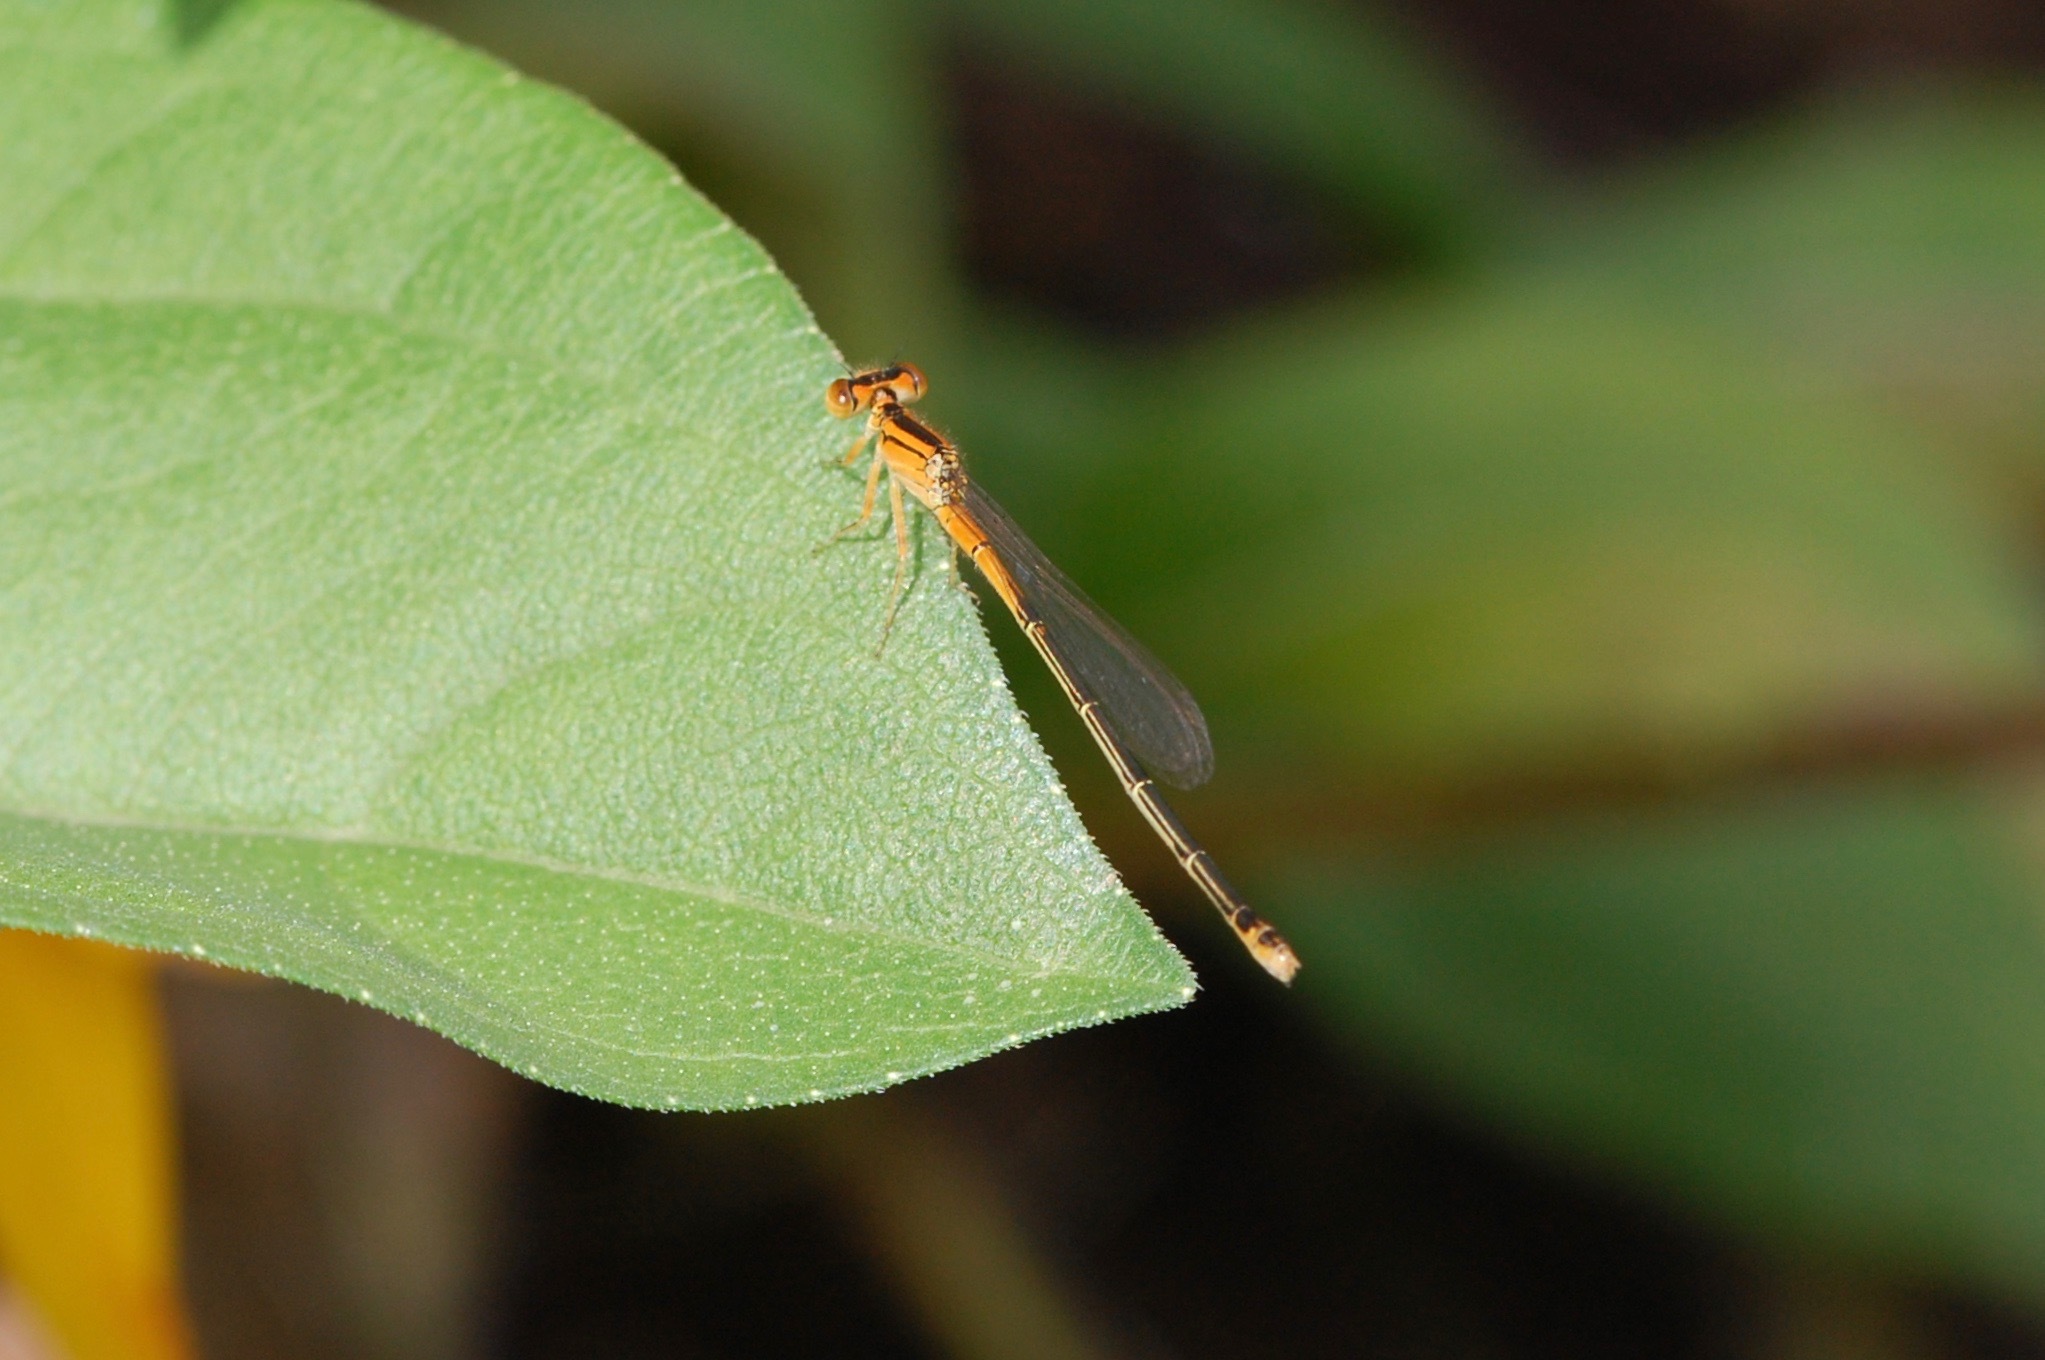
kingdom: Animalia
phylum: Arthropoda
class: Insecta
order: Odonata
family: Coenagrionidae
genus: Ischnura
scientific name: Ischnura verticalis
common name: Eastern forktail
